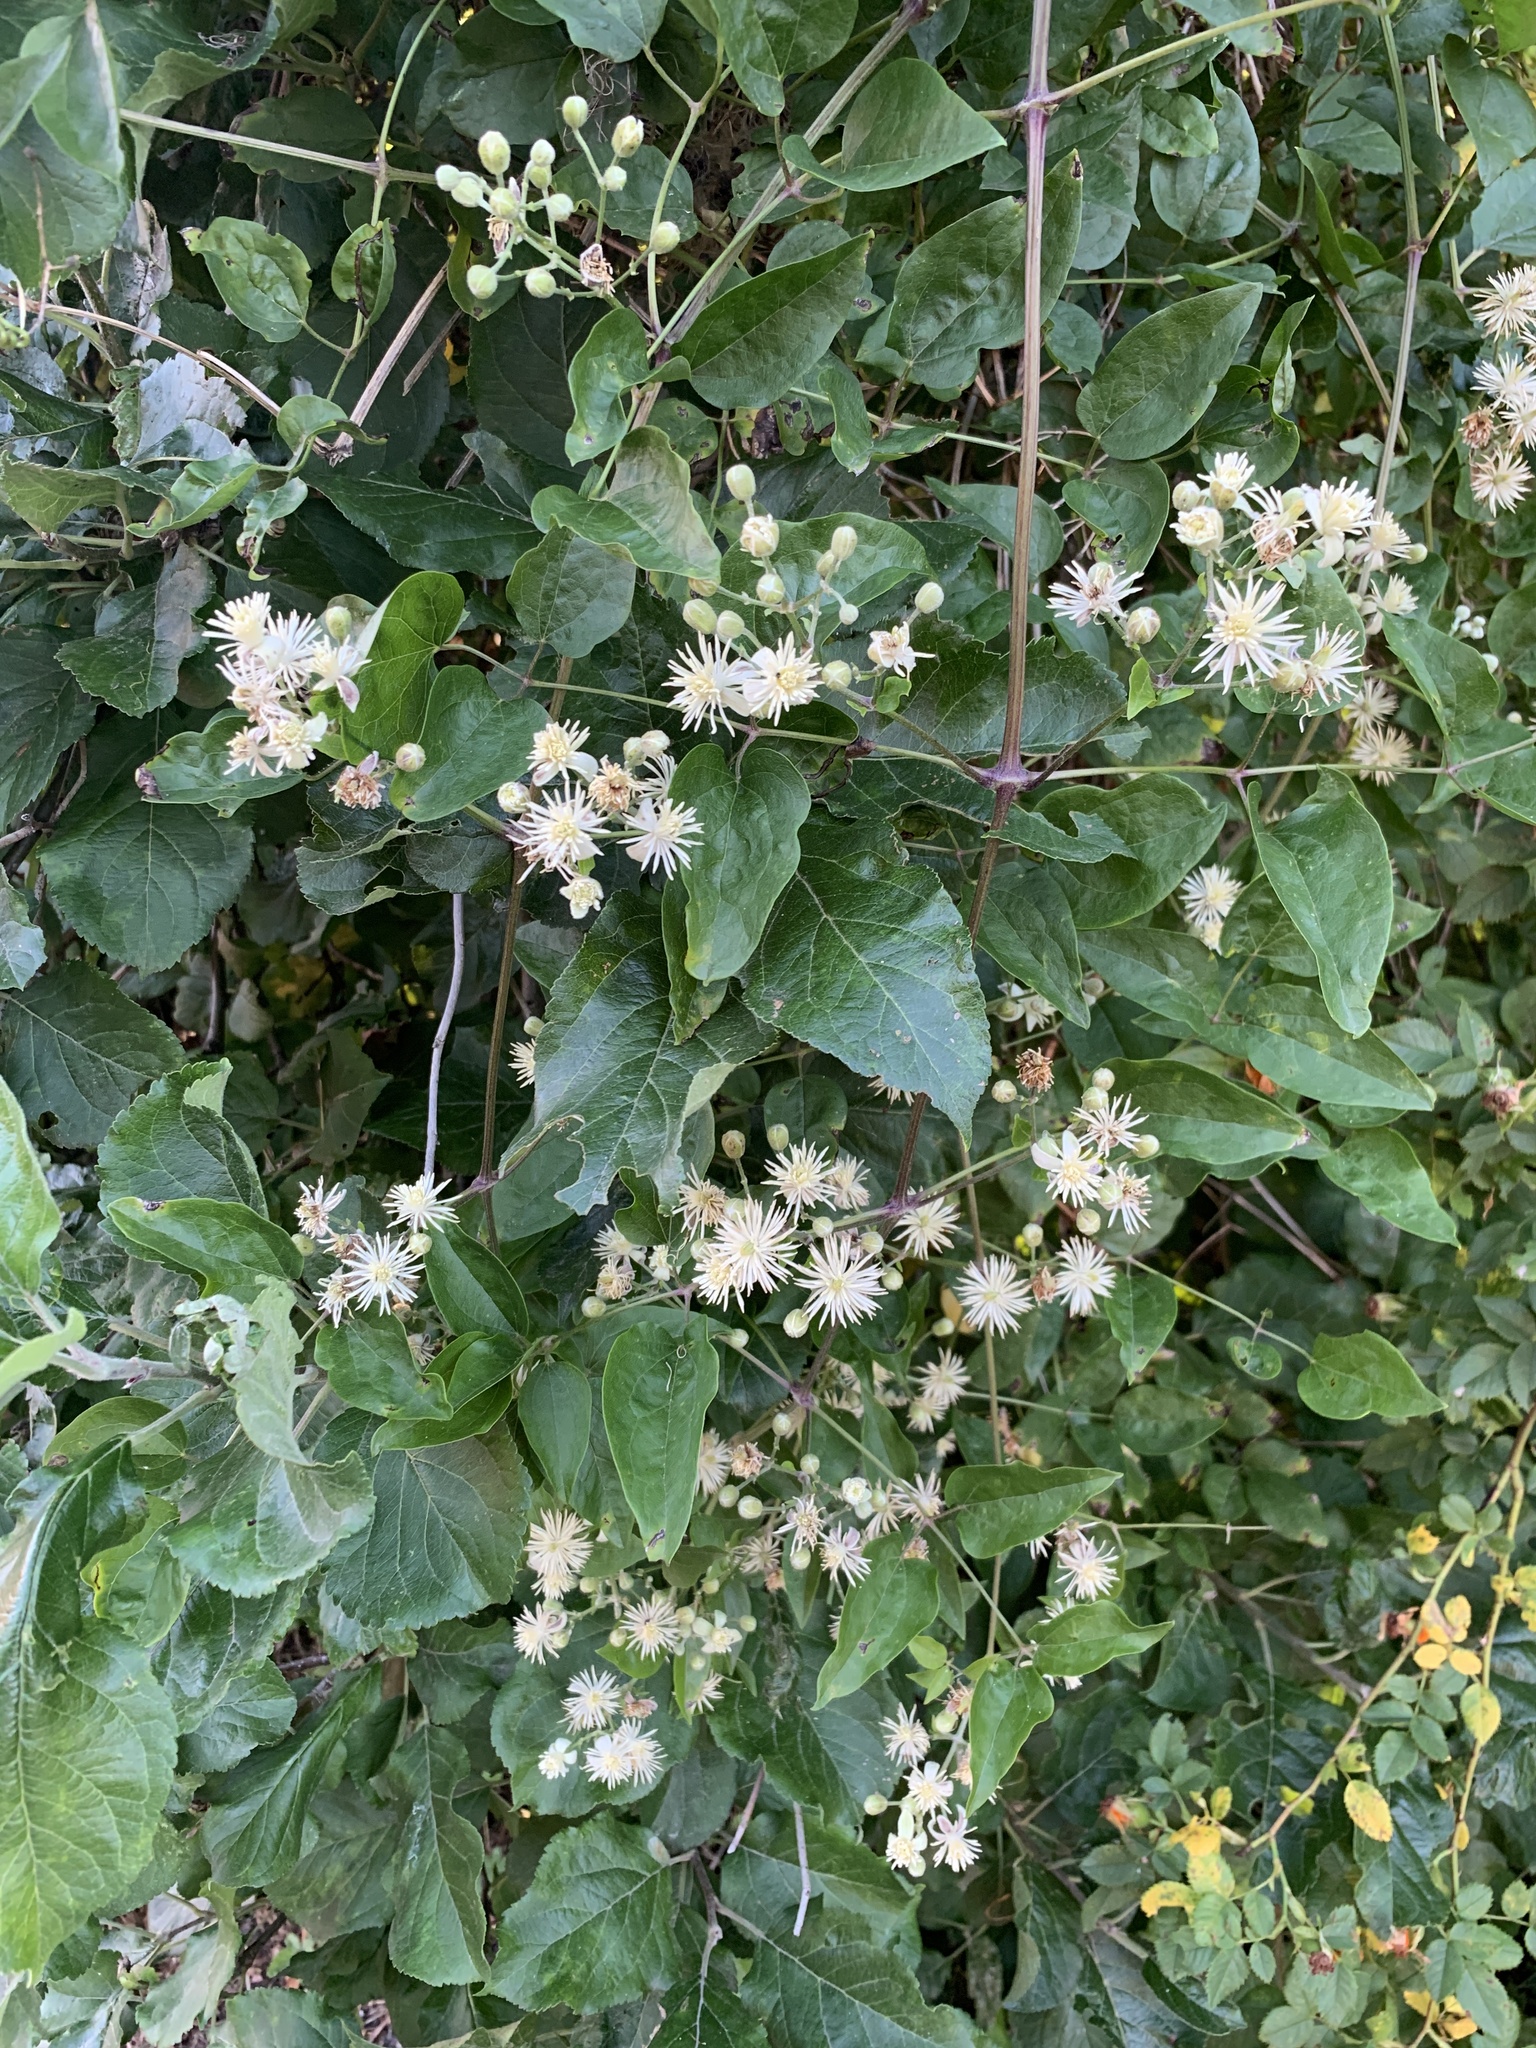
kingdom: Plantae
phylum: Tracheophyta
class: Magnoliopsida
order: Ranunculales
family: Ranunculaceae
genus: Clematis
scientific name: Clematis vitalba
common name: Evergreen clematis
